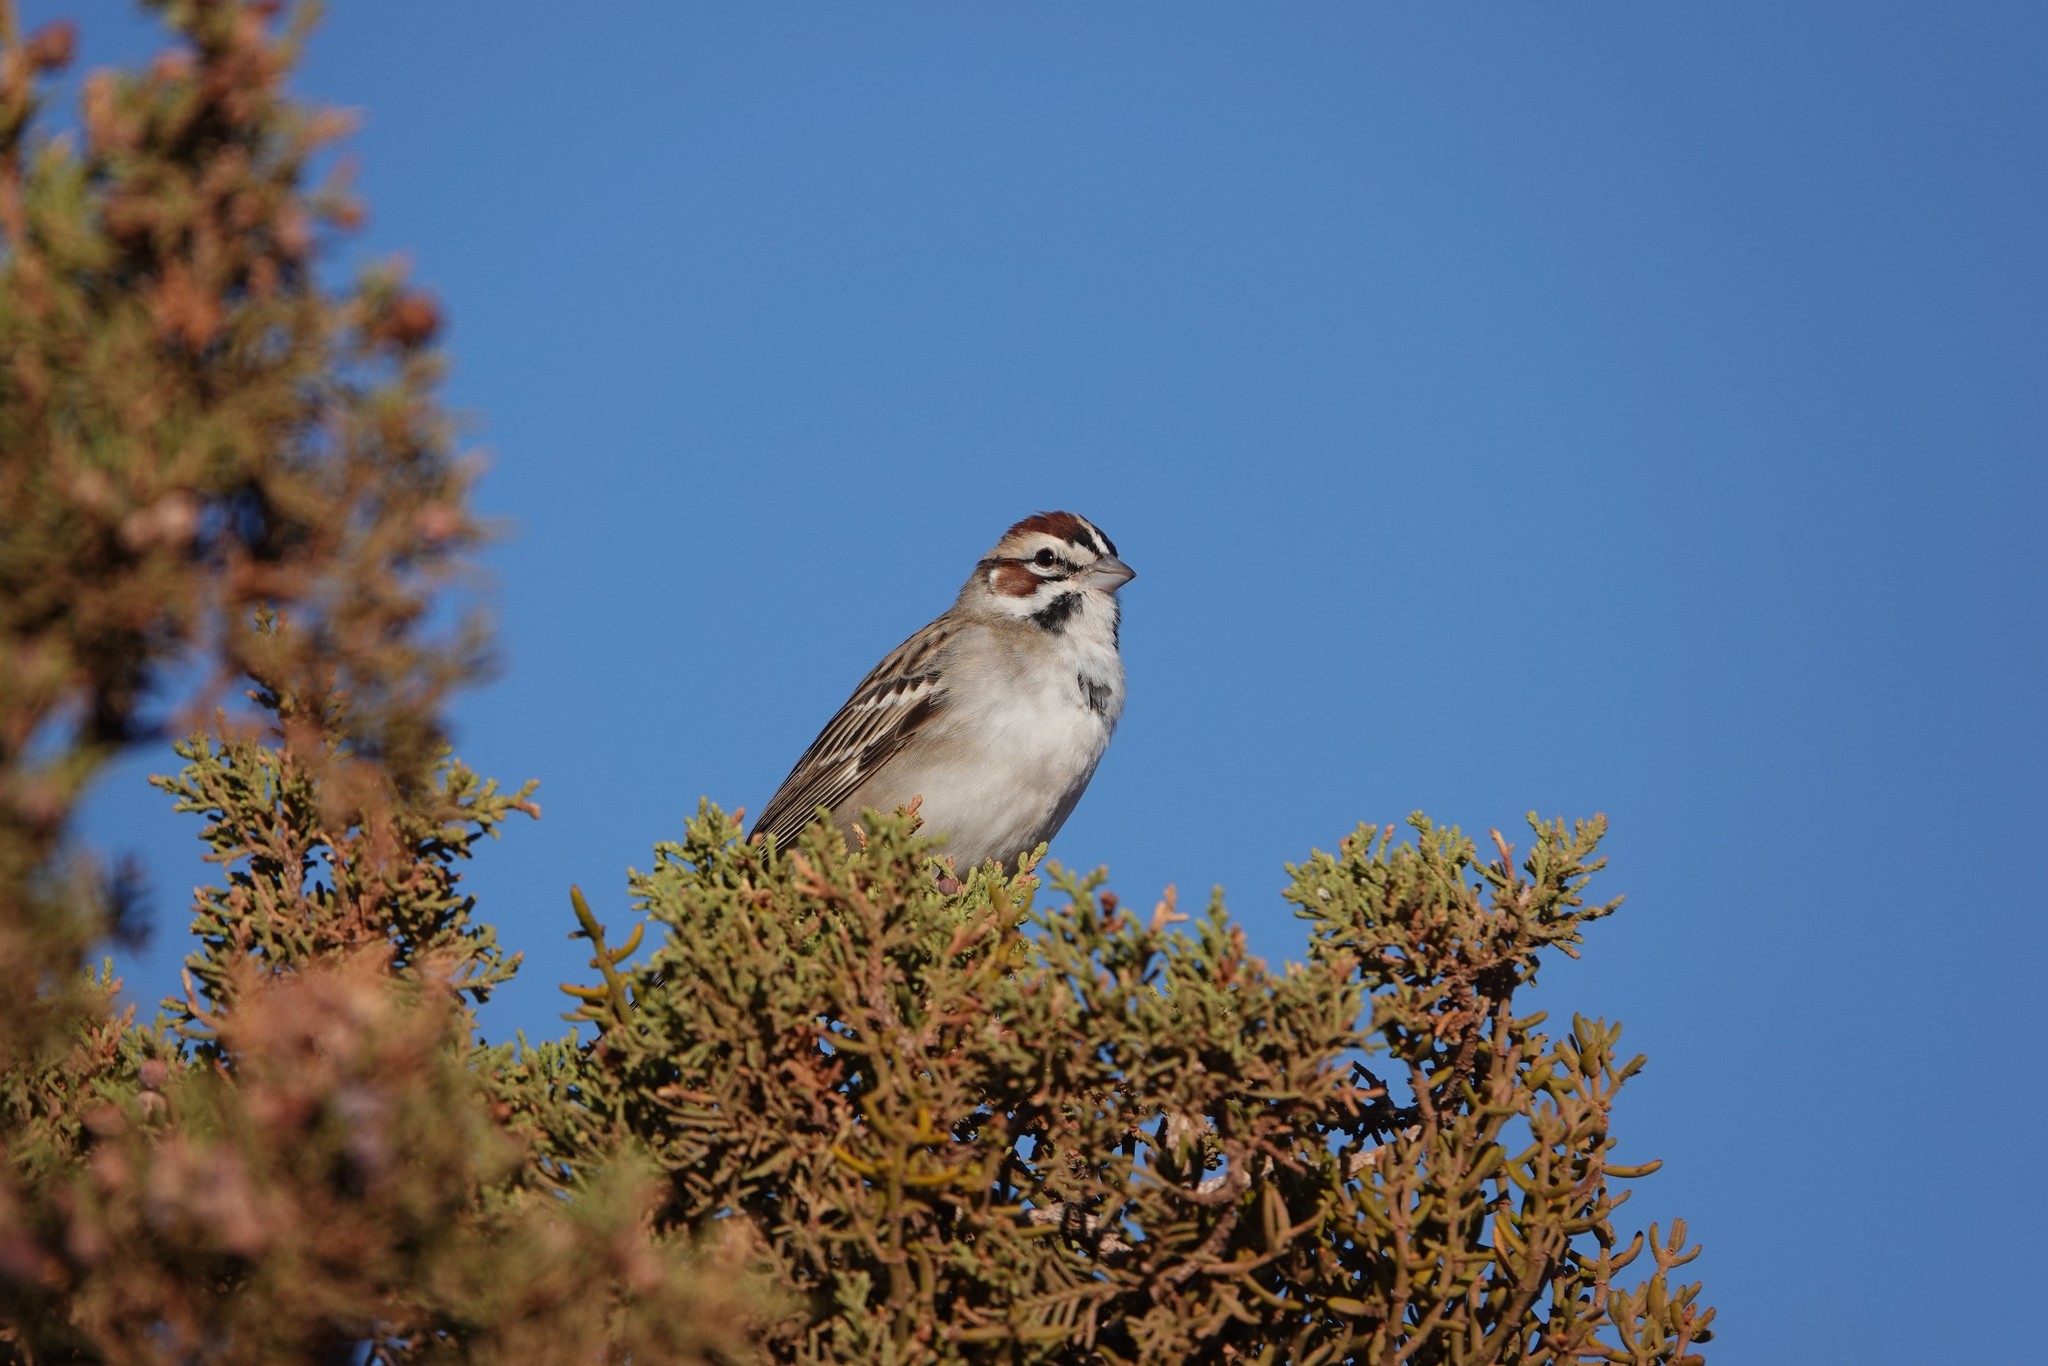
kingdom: Animalia
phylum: Chordata
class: Aves
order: Passeriformes
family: Passerellidae
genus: Chondestes
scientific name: Chondestes grammacus
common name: Lark sparrow
